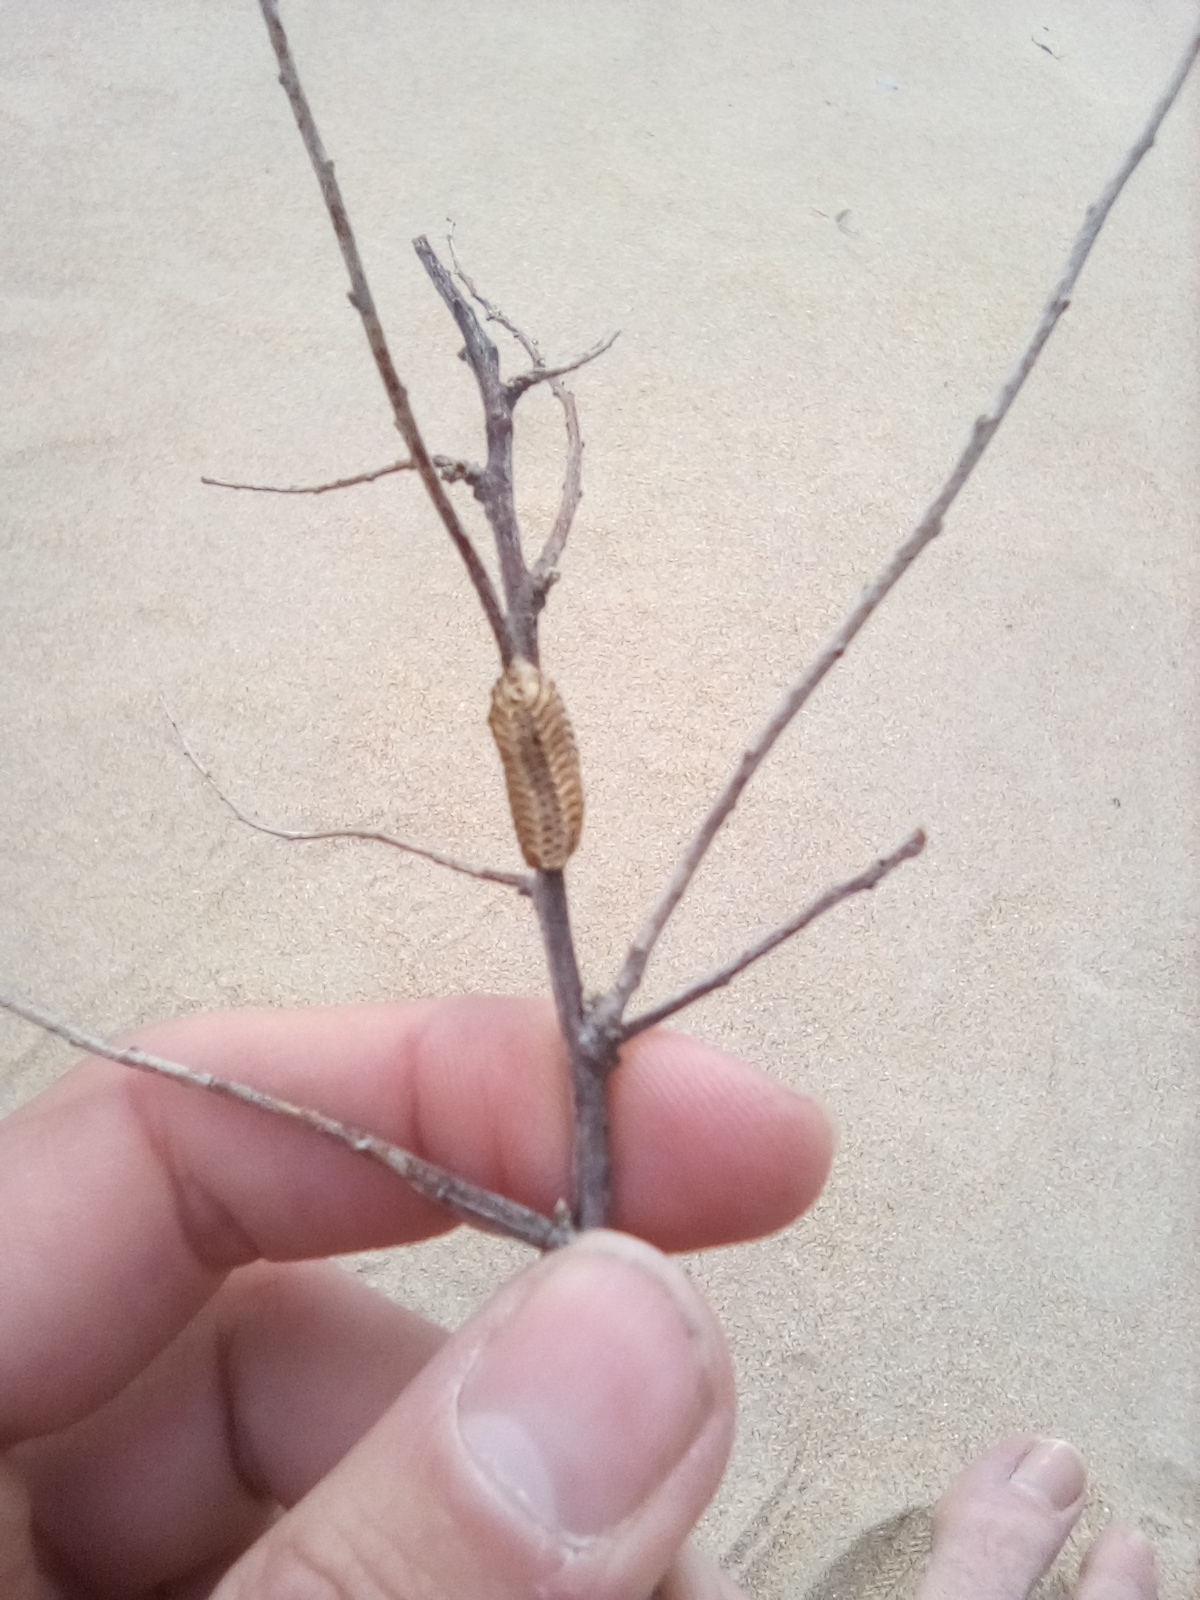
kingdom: Animalia
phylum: Arthropoda
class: Insecta
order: Mantodea
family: Eremiaphilidae
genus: Iris
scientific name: Iris polystictica
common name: Dot-winged mantis
